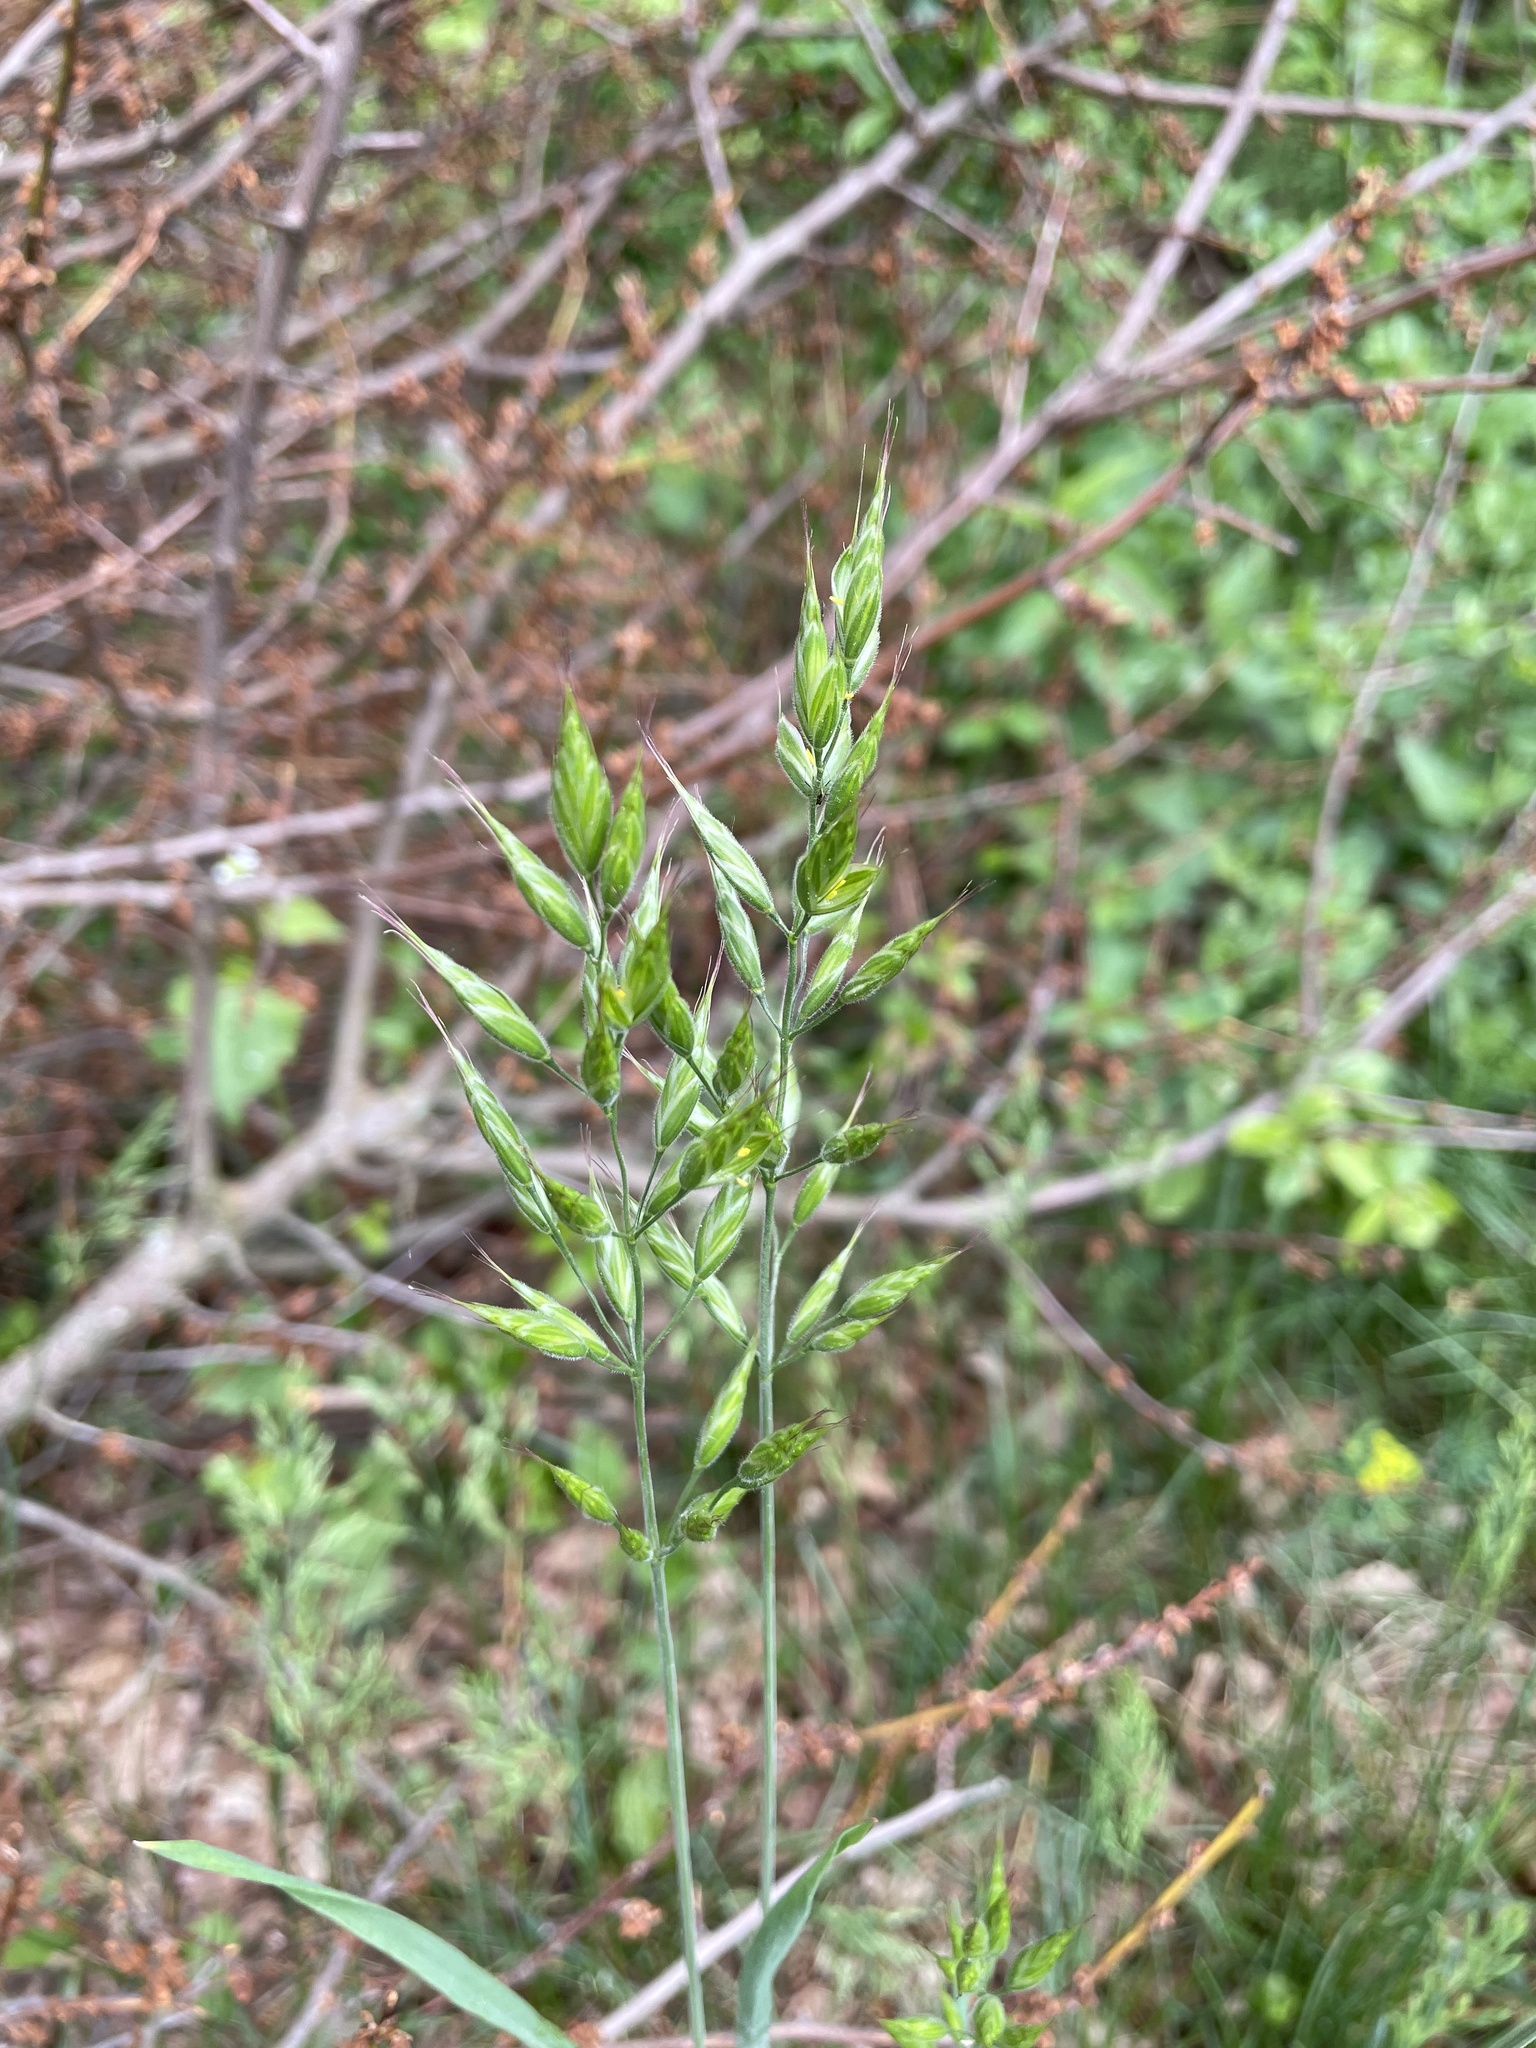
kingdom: Plantae
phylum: Tracheophyta
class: Liliopsida
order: Poales
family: Poaceae
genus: Bromus
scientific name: Bromus hordeaceus
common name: Soft brome
